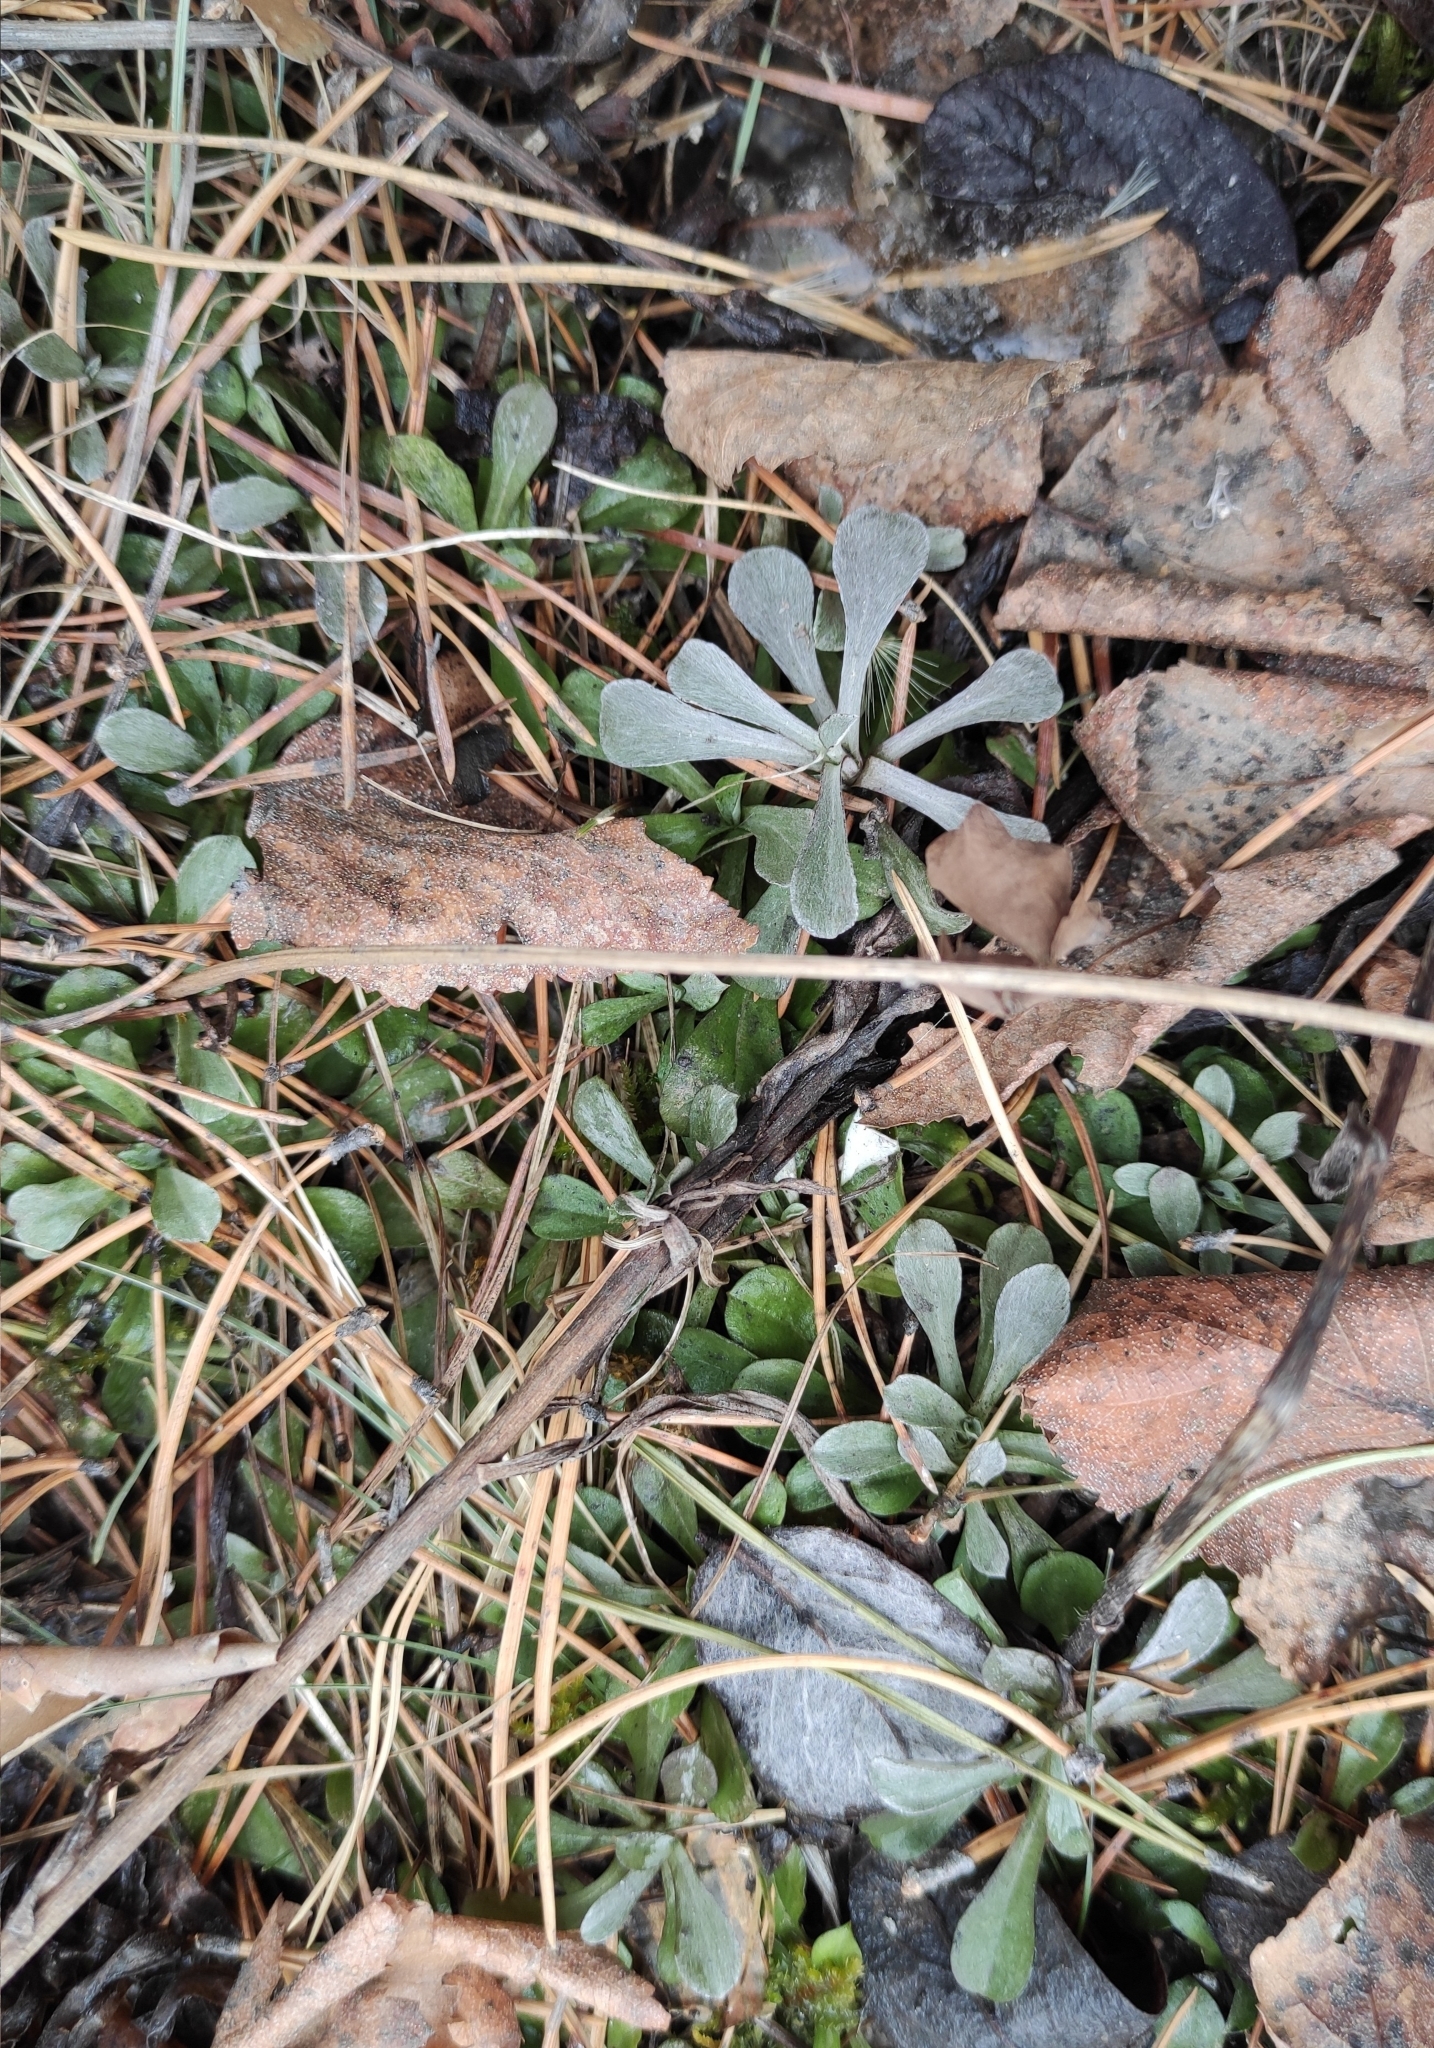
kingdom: Plantae
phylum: Tracheophyta
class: Magnoliopsida
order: Asterales
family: Asteraceae
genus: Antennaria
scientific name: Antennaria dioica
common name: Mountain everlasting
